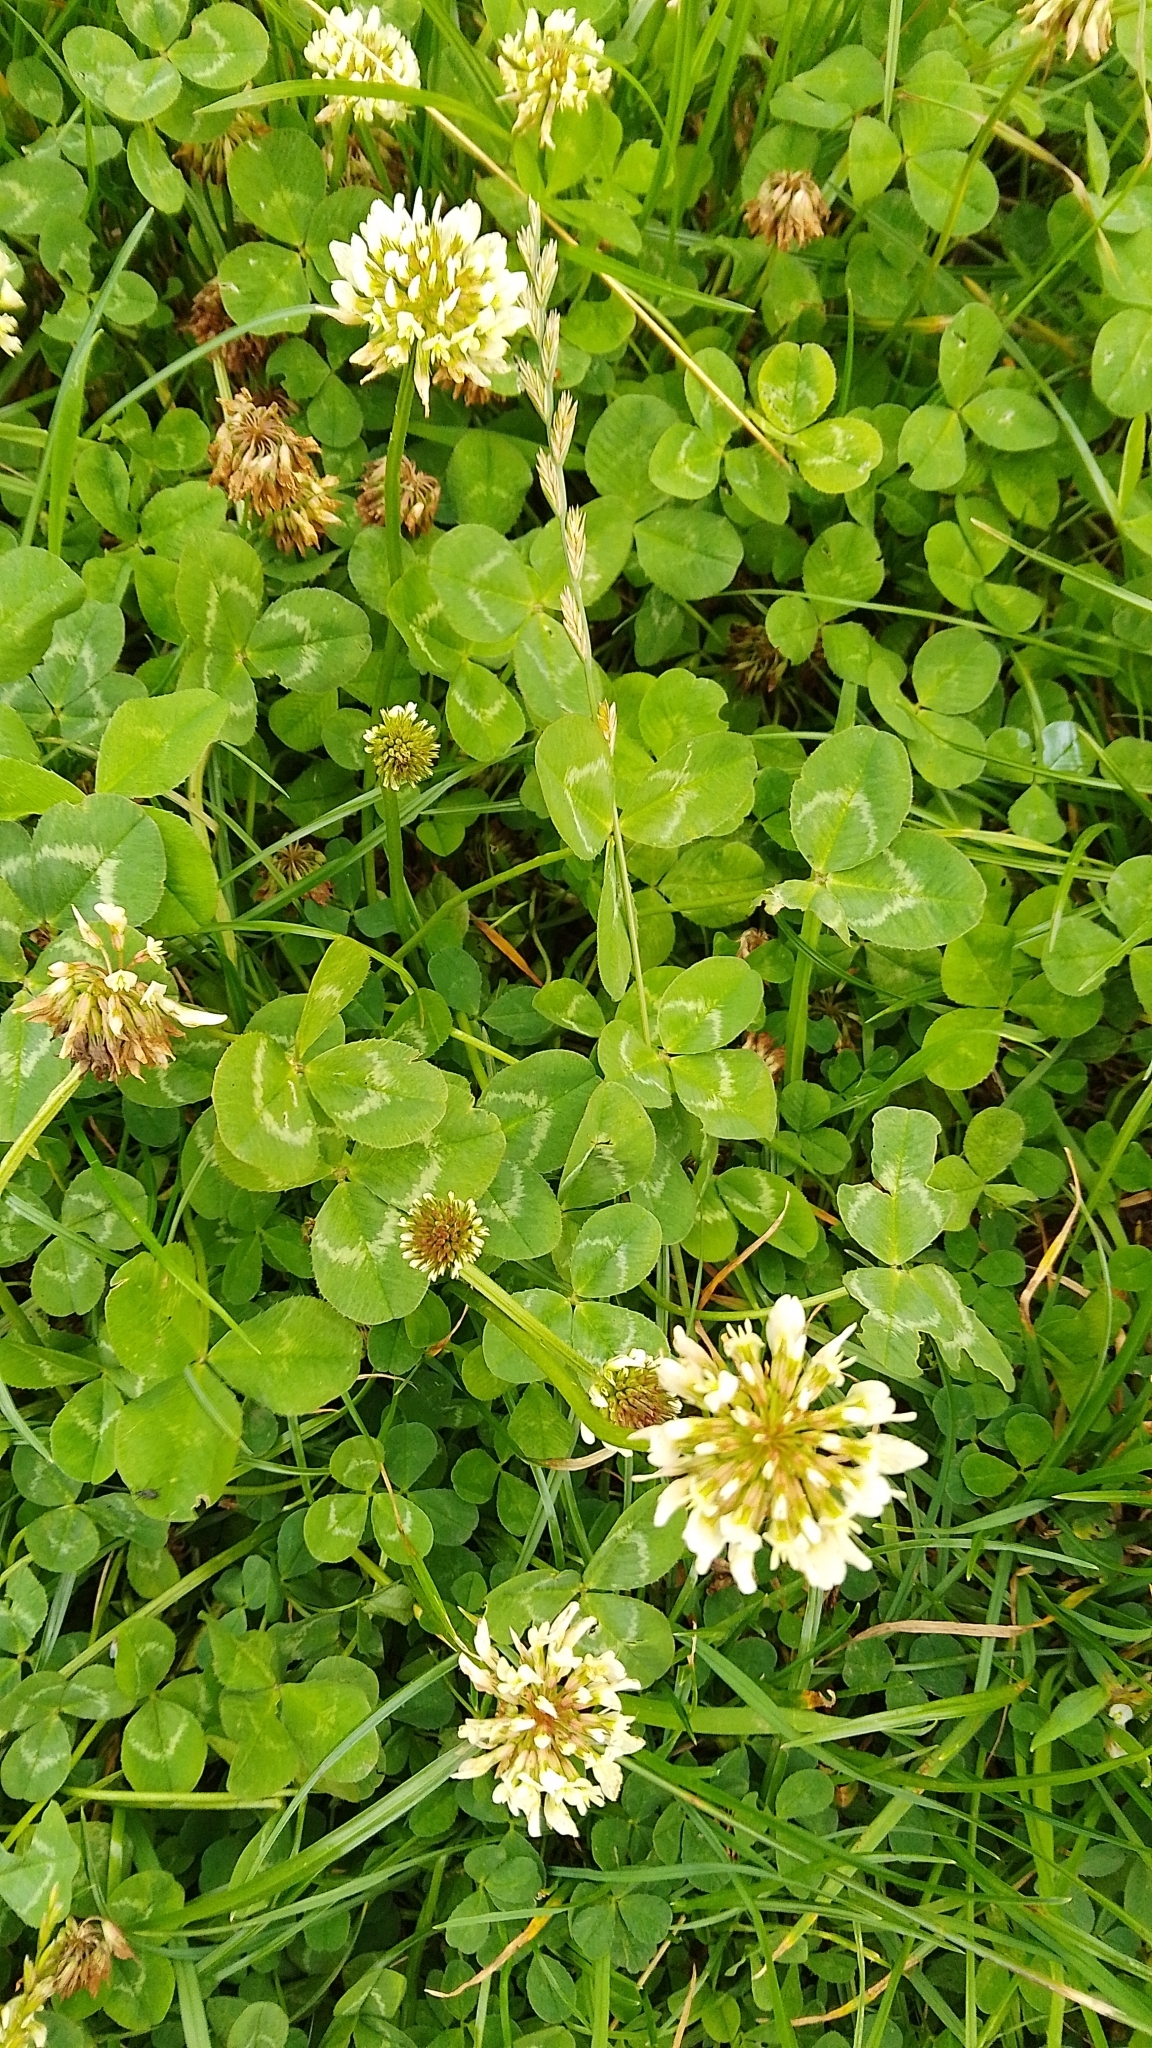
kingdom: Plantae
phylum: Tracheophyta
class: Magnoliopsida
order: Fabales
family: Fabaceae
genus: Trifolium
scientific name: Trifolium repens
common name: White clover
